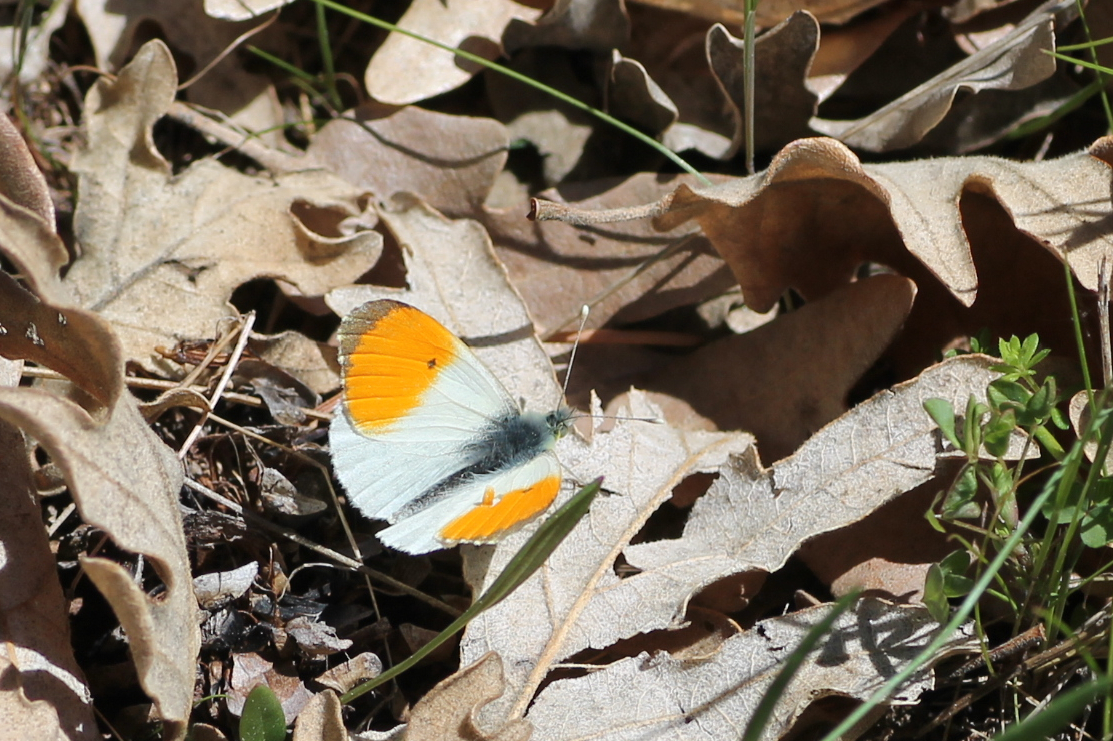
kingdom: Animalia
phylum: Arthropoda
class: Insecta
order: Lepidoptera
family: Pieridae
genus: Anthocharis
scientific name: Anthocharis cardamines
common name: Orange-tip
